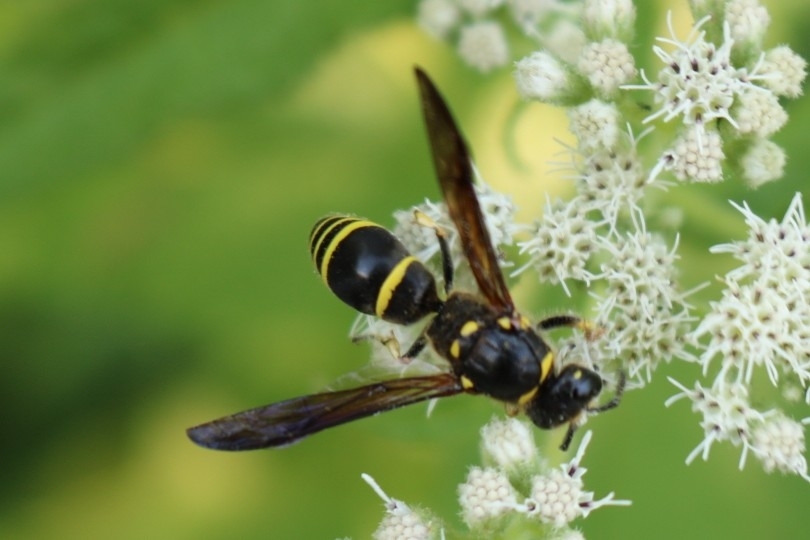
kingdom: Animalia
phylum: Arthropoda
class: Insecta
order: Hymenoptera
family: Vespidae
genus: Ancistrocerus
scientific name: Ancistrocerus
